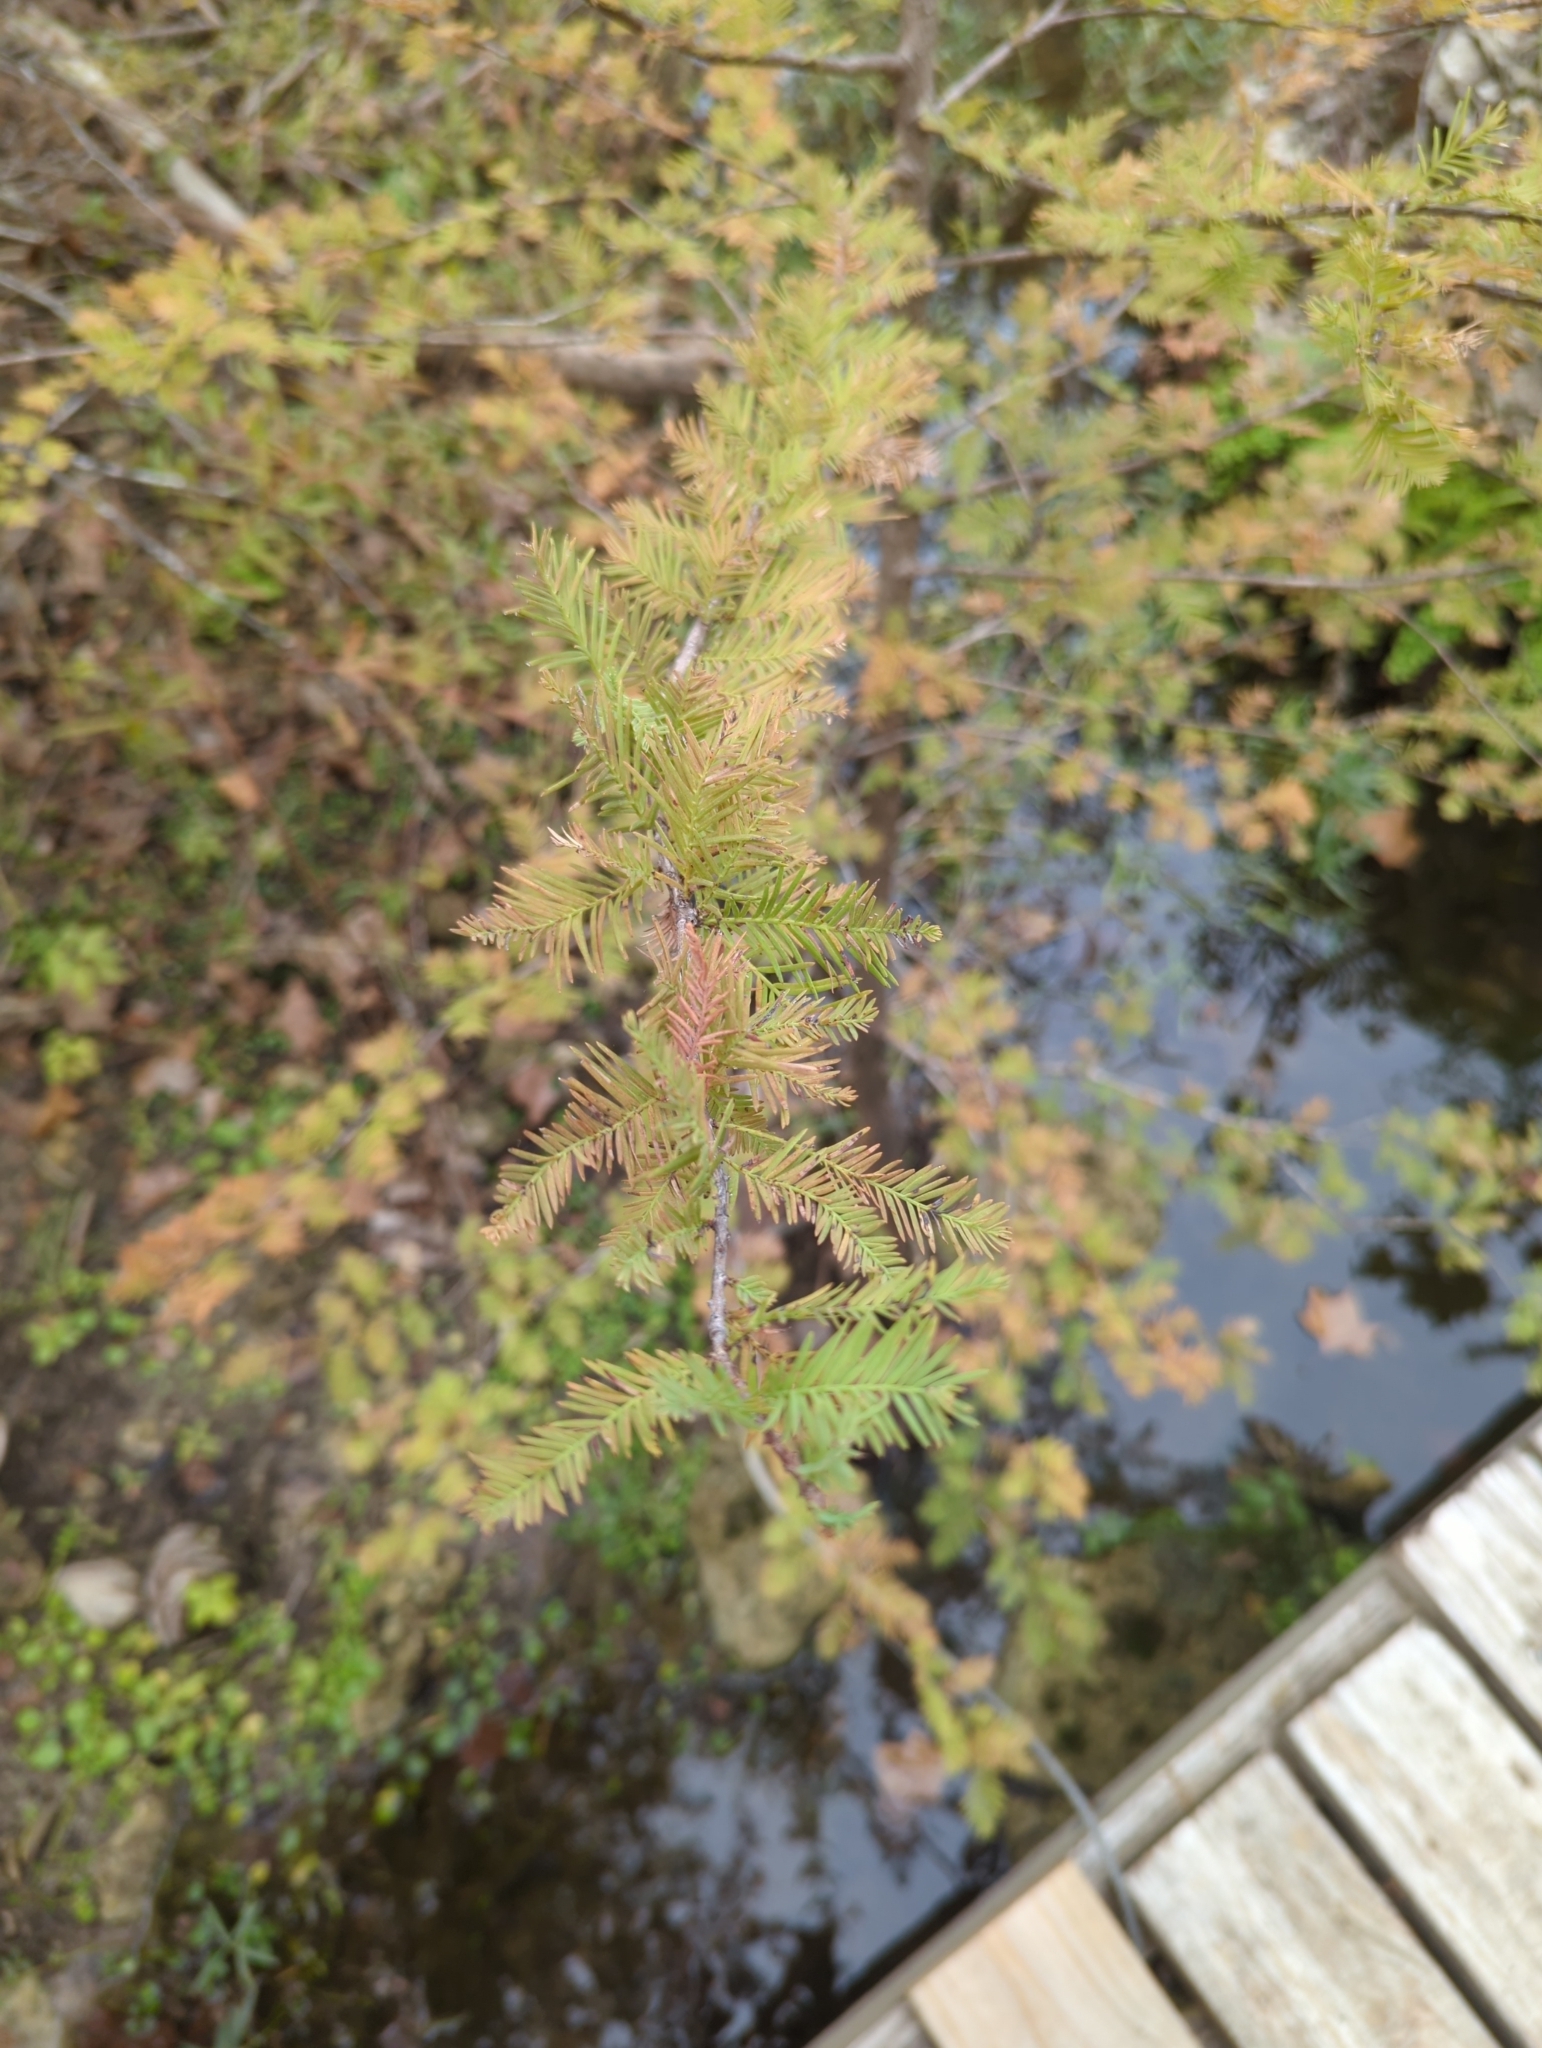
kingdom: Plantae
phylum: Tracheophyta
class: Pinopsida
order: Pinales
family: Cupressaceae
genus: Taxodium
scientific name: Taxodium distichum
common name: Bald cypress
